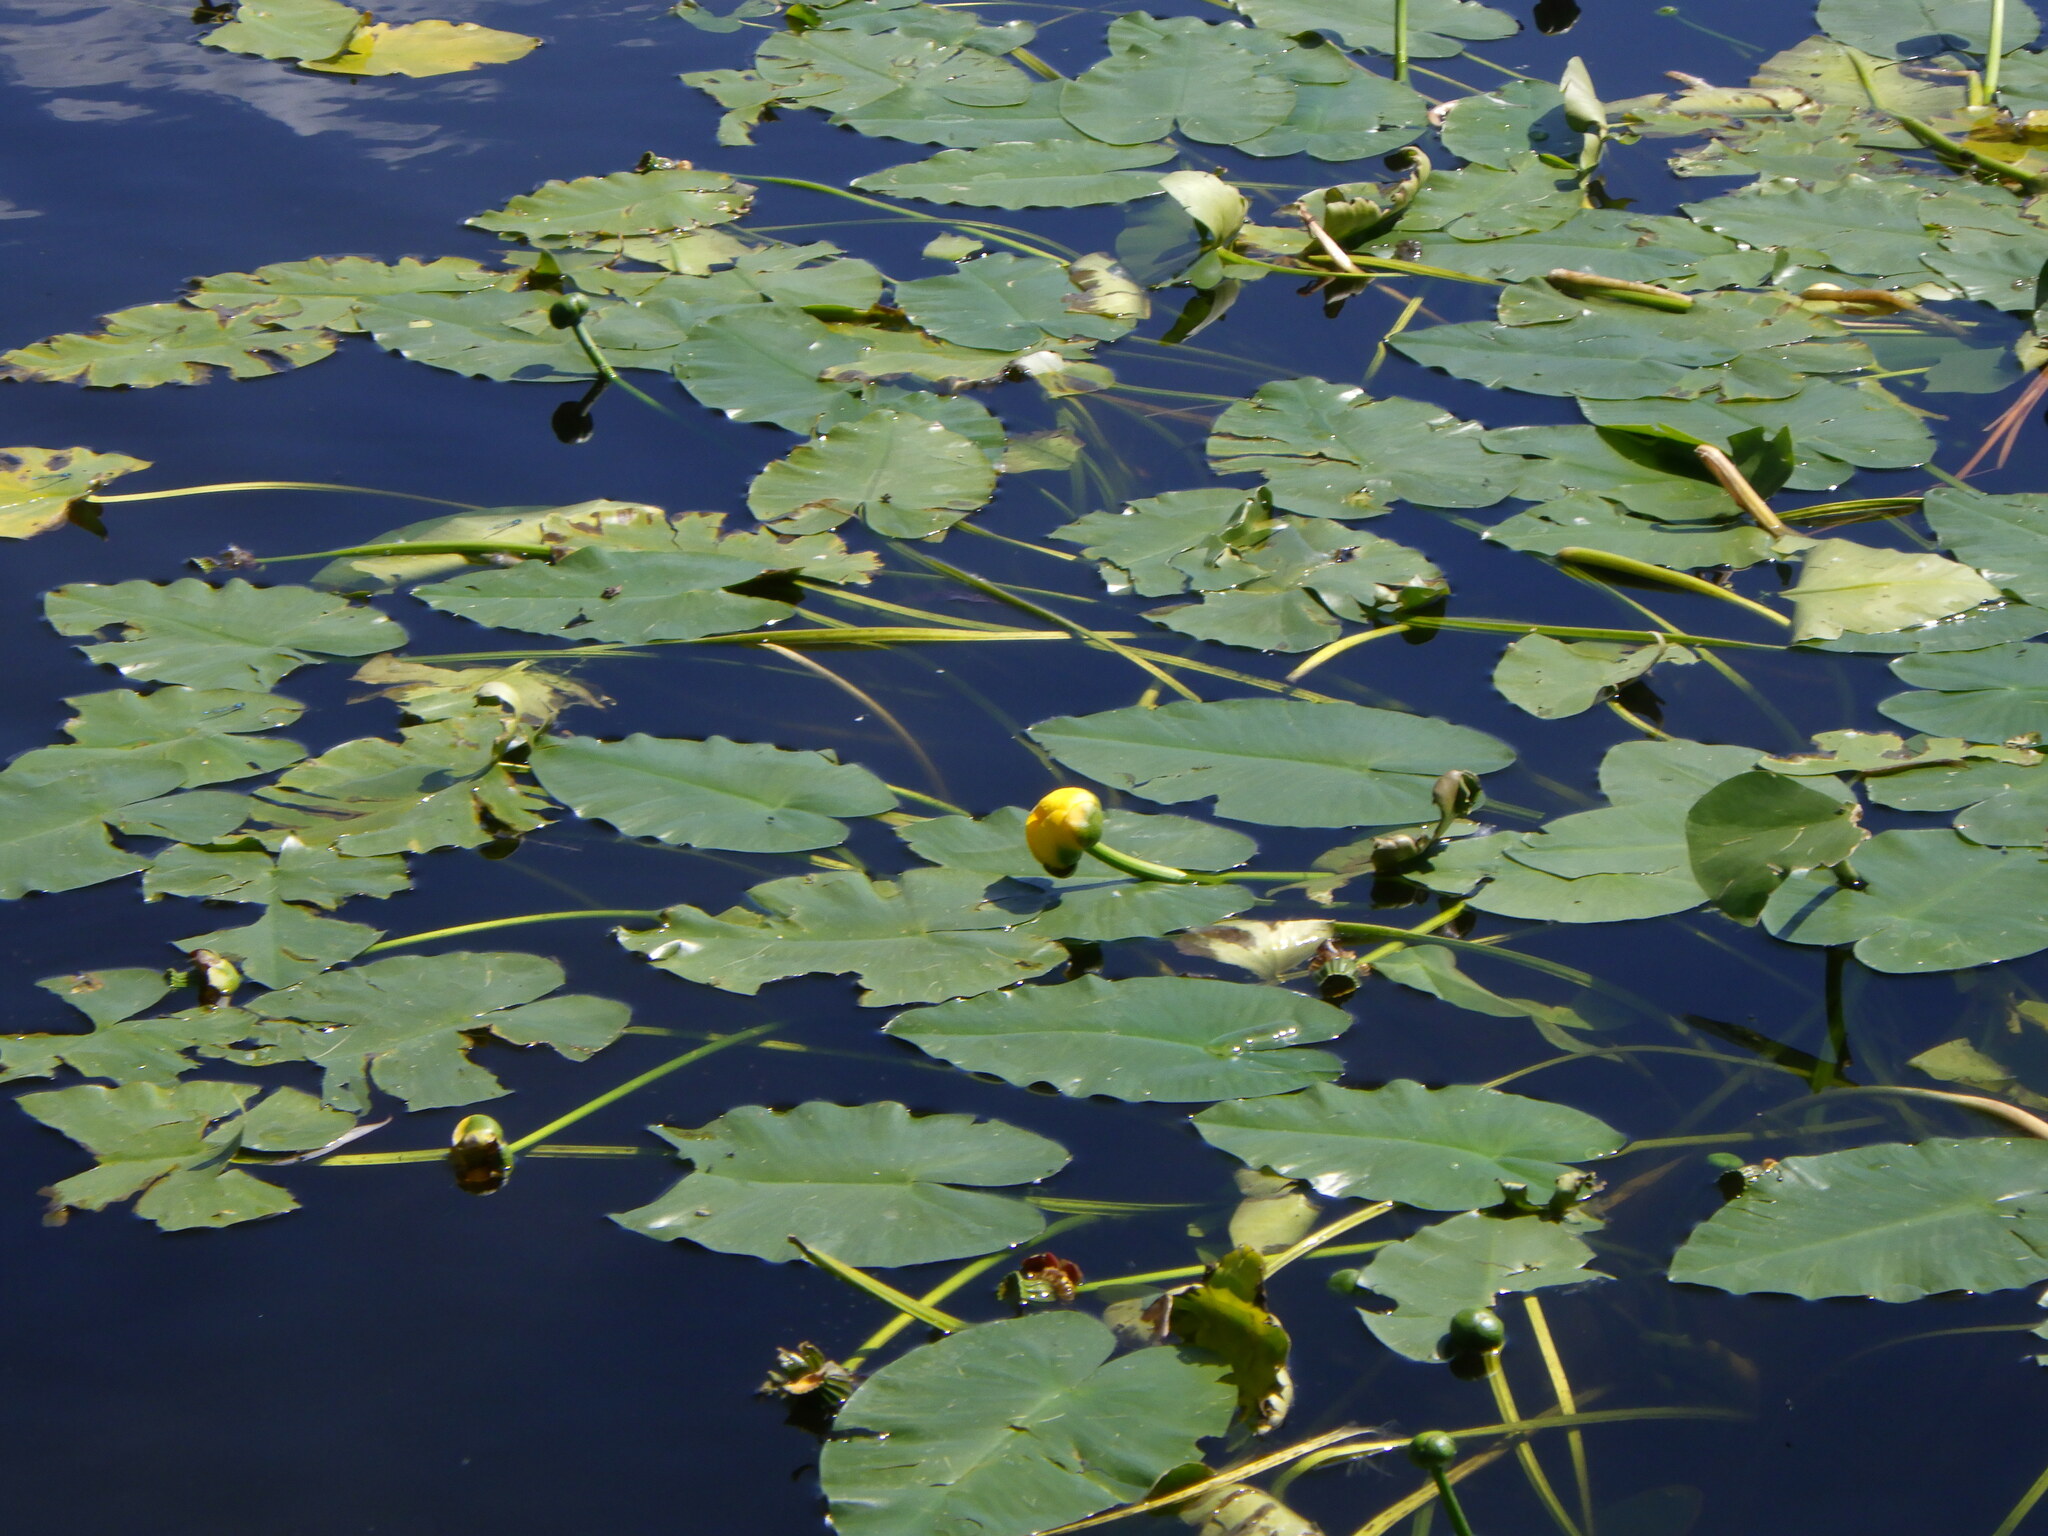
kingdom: Plantae
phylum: Tracheophyta
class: Magnoliopsida
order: Nymphaeales
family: Nymphaeaceae
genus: Nuphar
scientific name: Nuphar variegata
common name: Beaver-root
